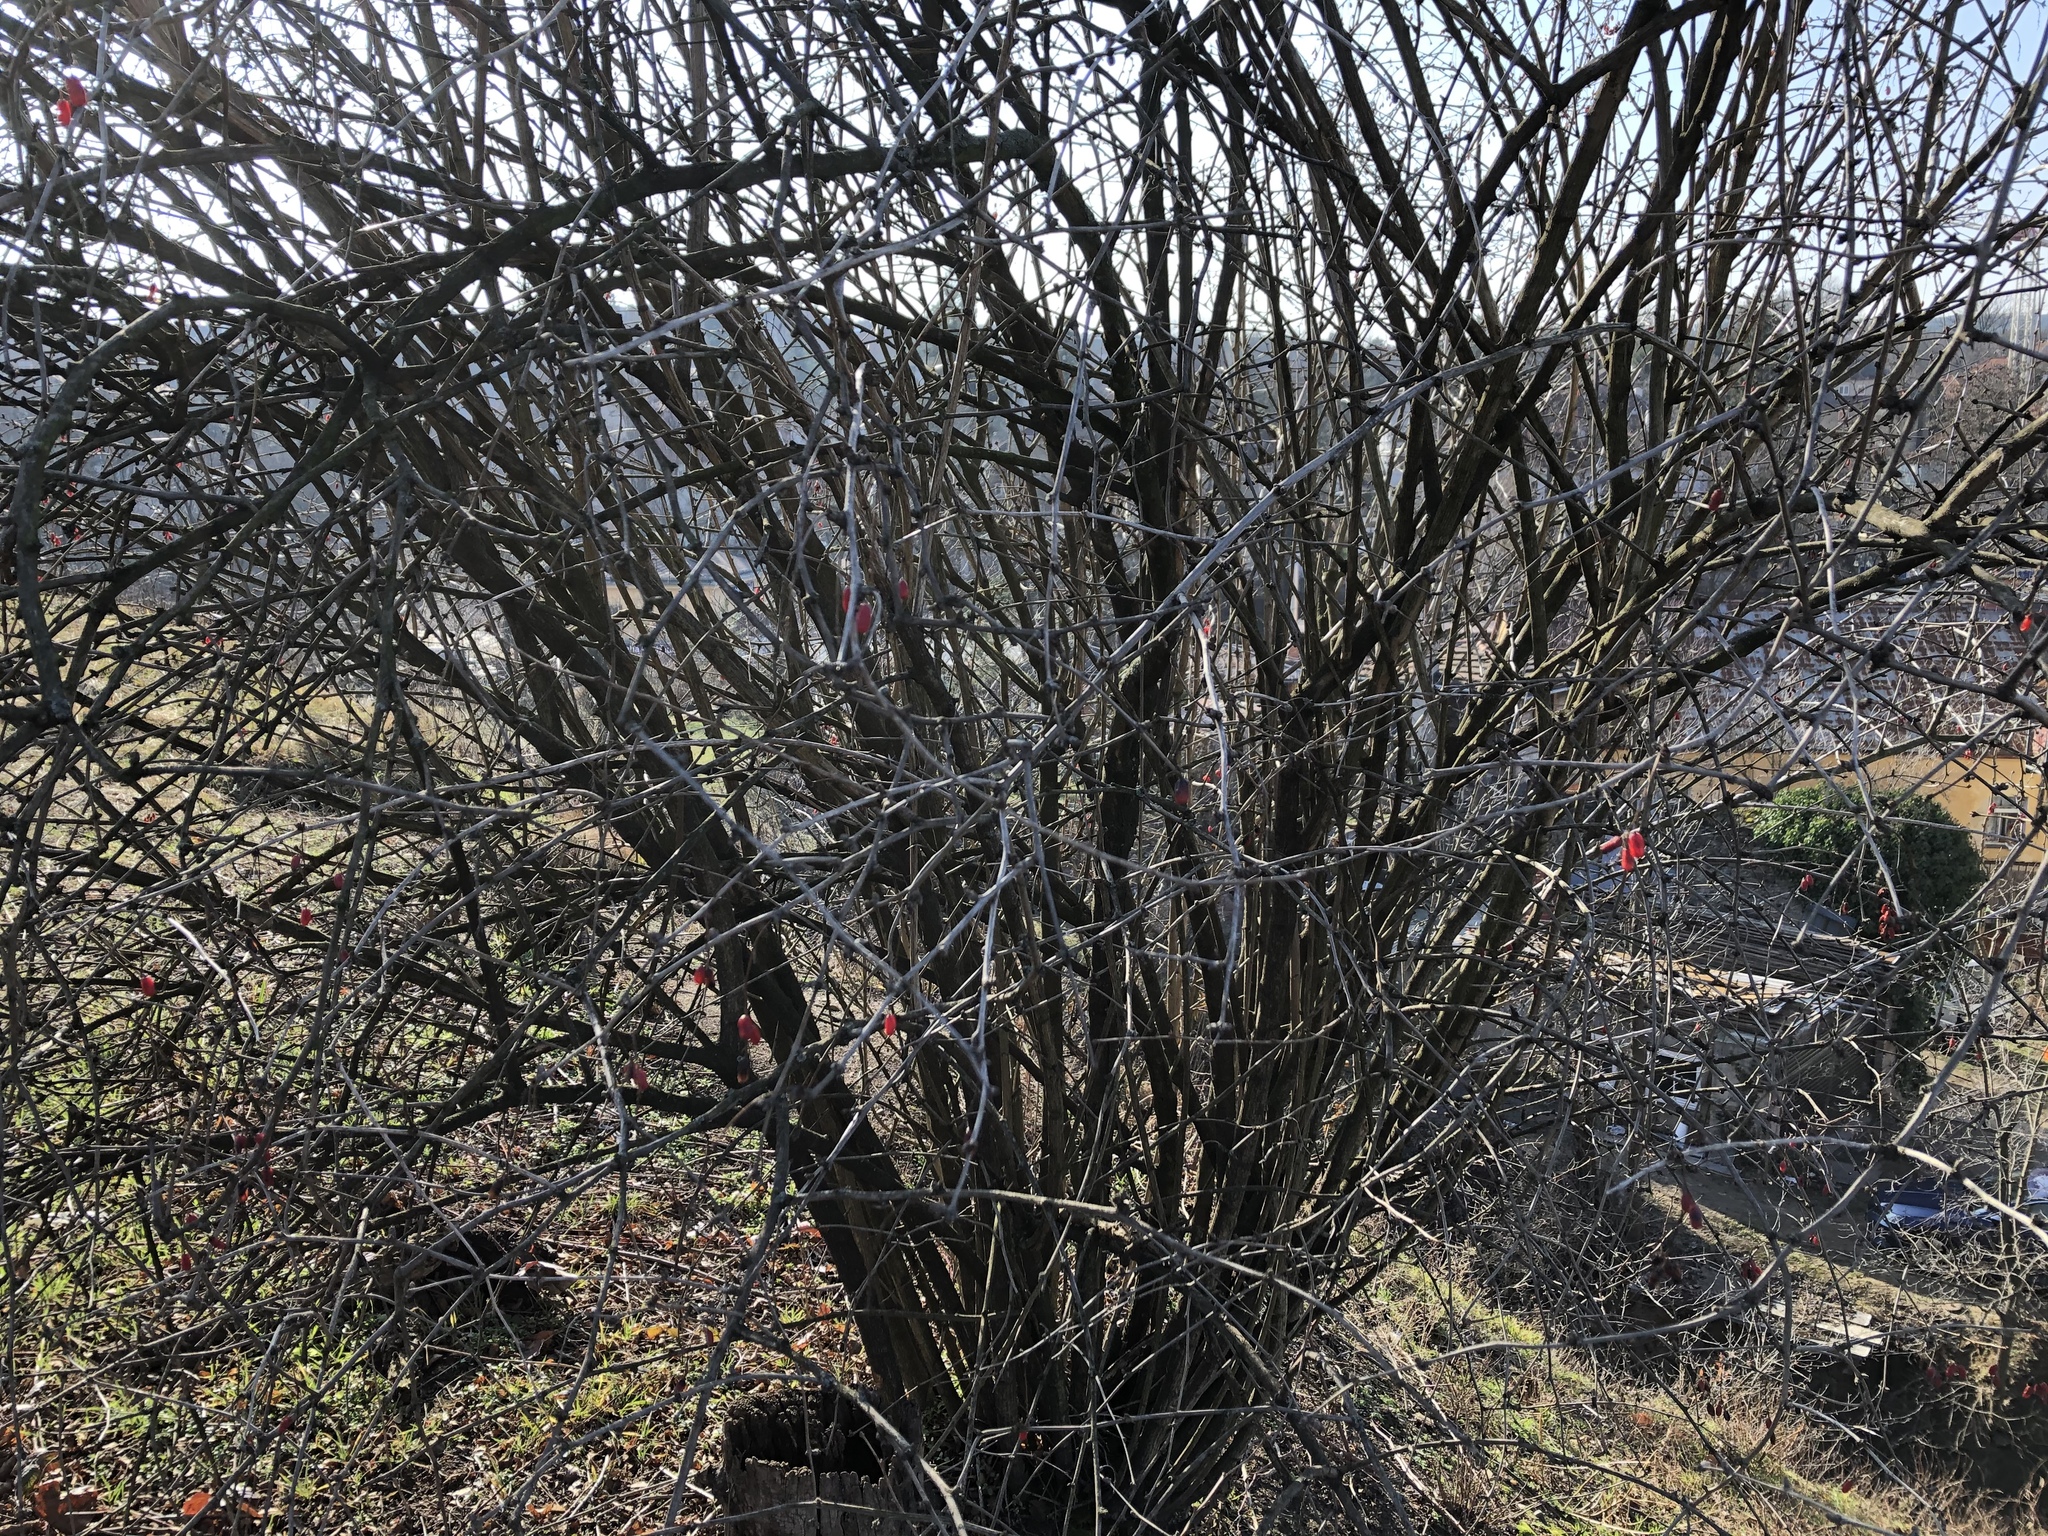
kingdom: Plantae
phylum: Tracheophyta
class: Magnoliopsida
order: Ranunculales
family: Berberidaceae
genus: Berberis
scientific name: Berberis vulgaris
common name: Barberry
